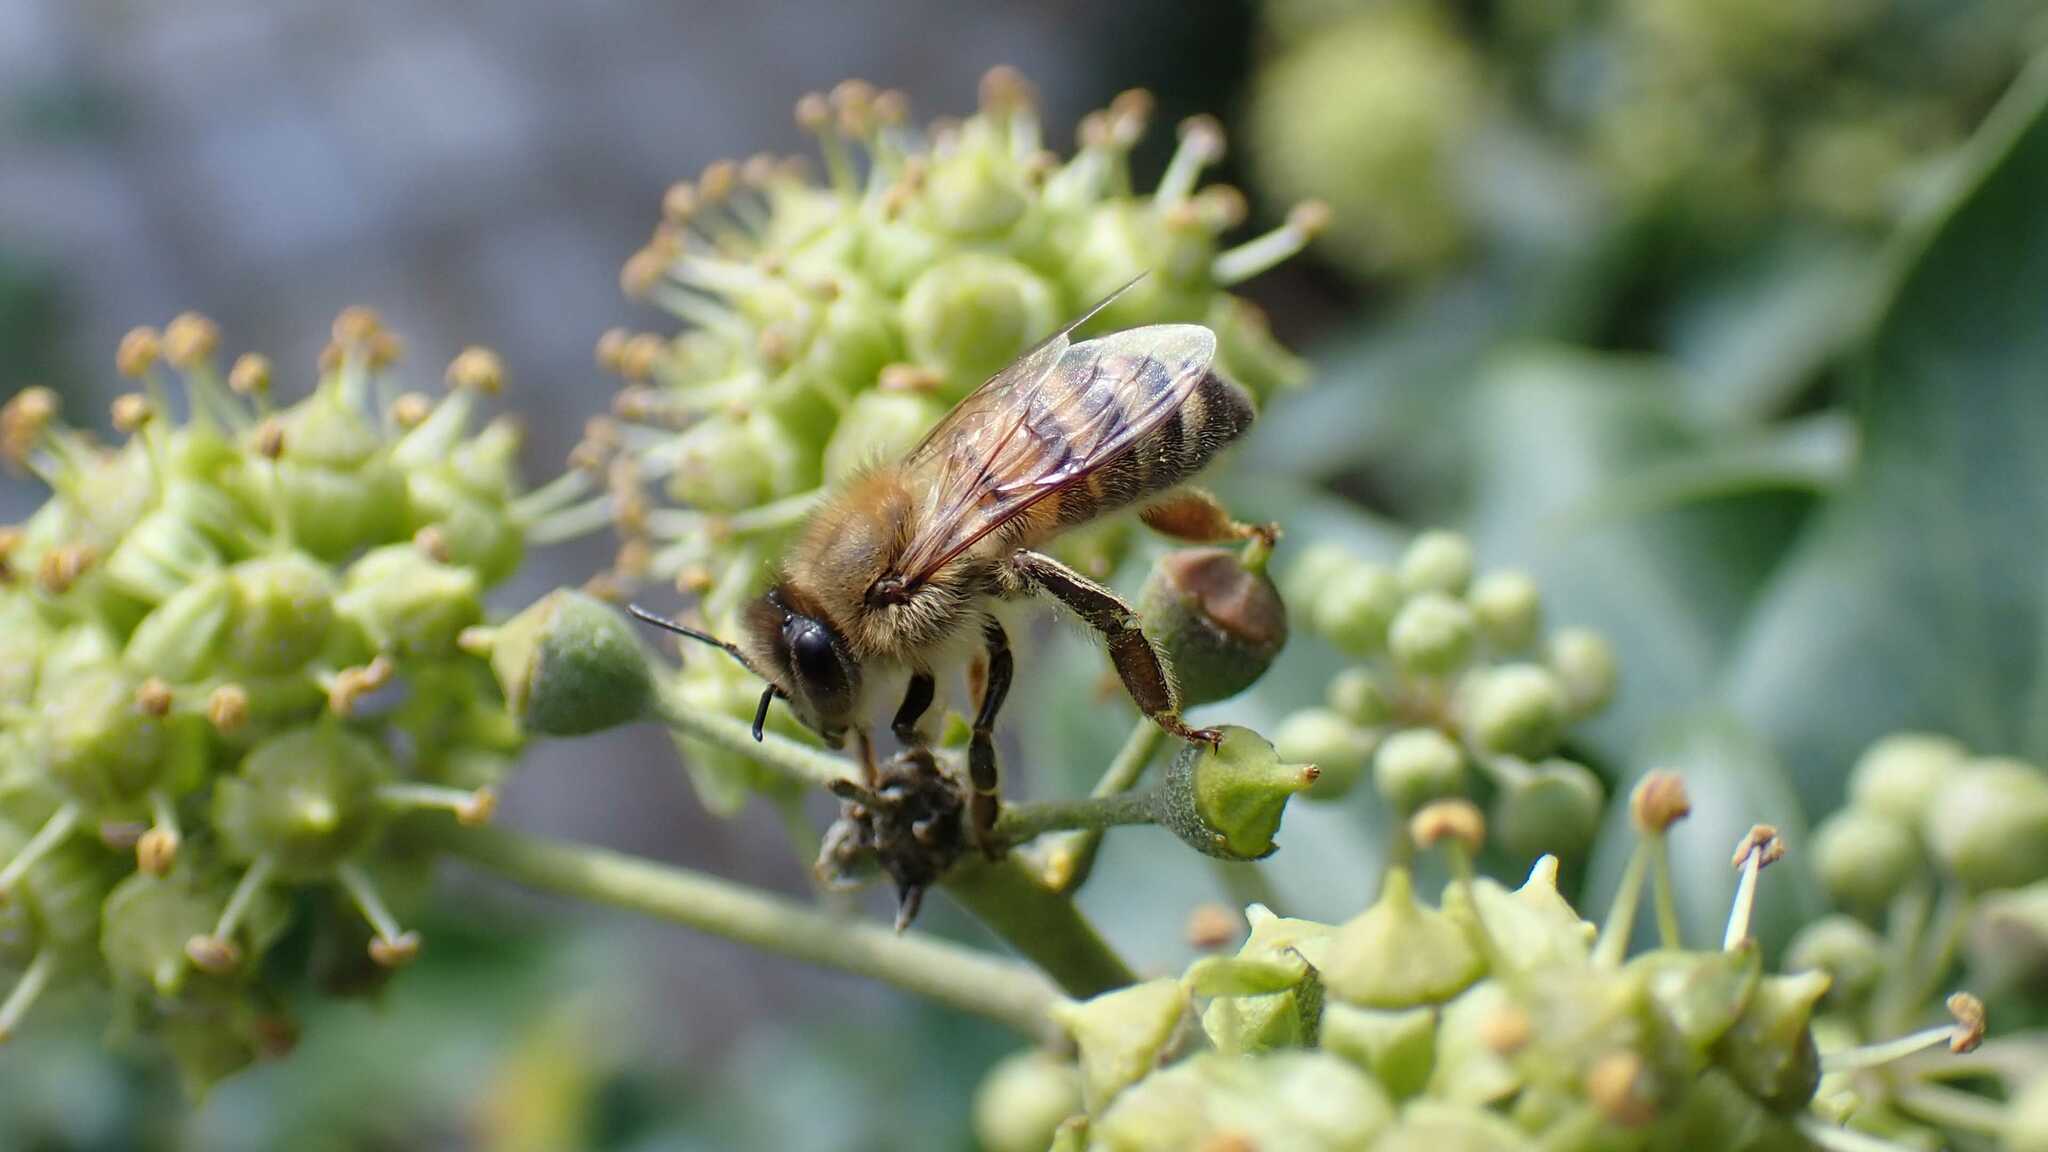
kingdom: Animalia
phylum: Arthropoda
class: Insecta
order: Hymenoptera
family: Apidae
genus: Apis
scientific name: Apis mellifera
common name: Honey bee
